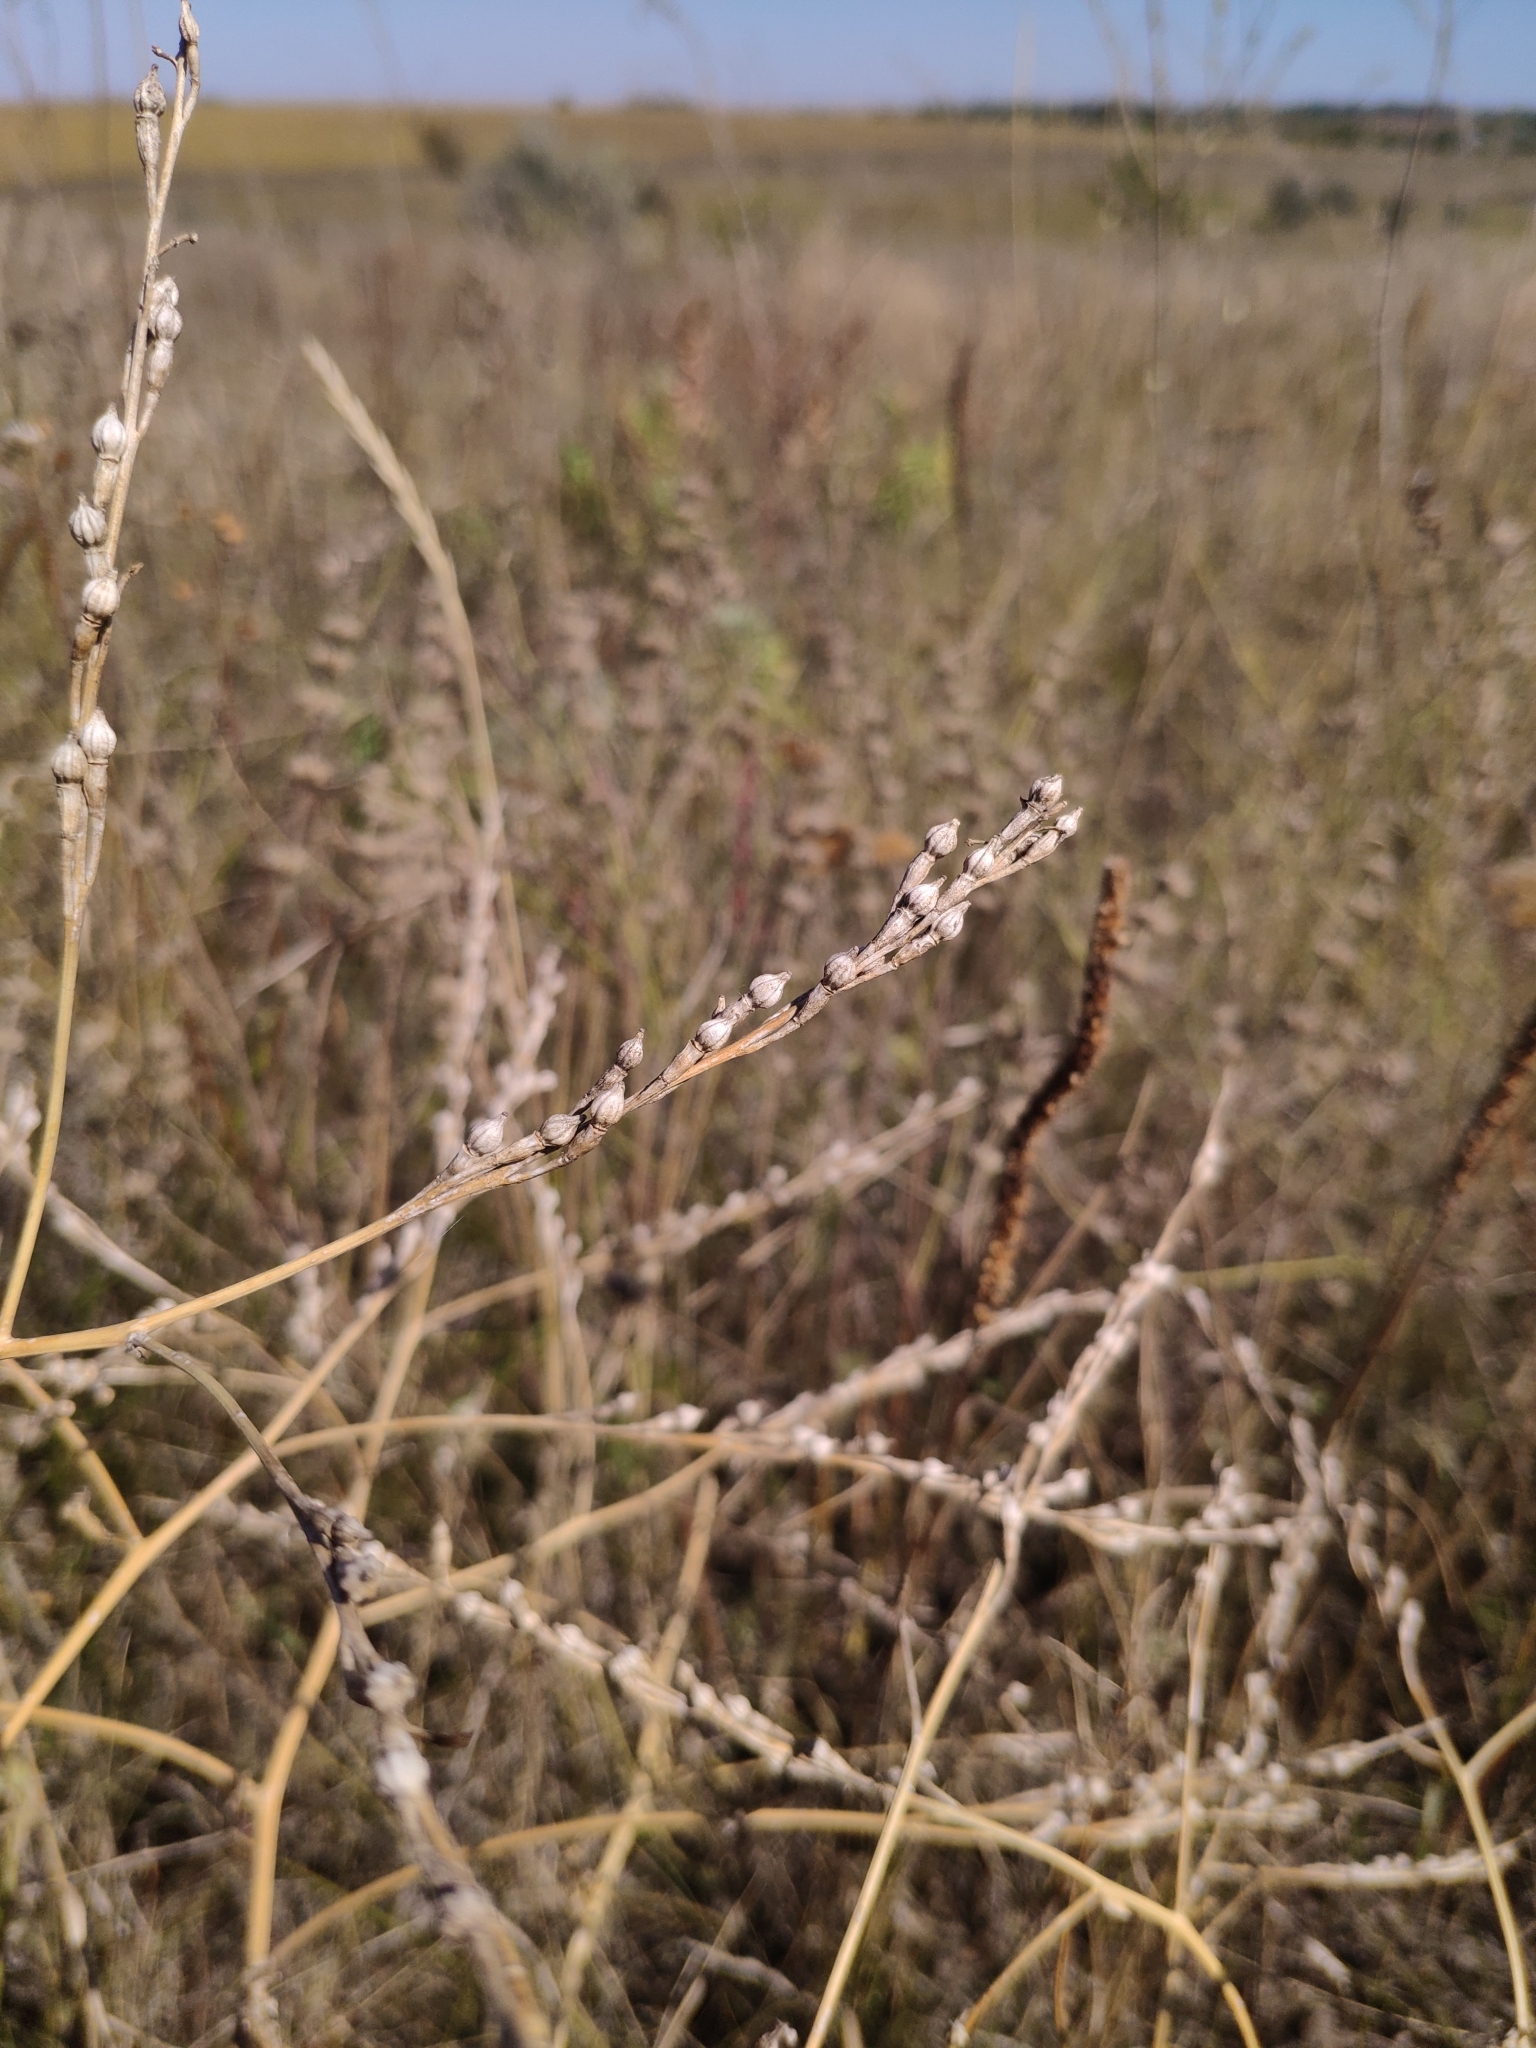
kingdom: Plantae
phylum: Tracheophyta
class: Magnoliopsida
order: Brassicales
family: Brassicaceae
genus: Rapistrum
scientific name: Rapistrum perenne
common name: Steppe cabbage
